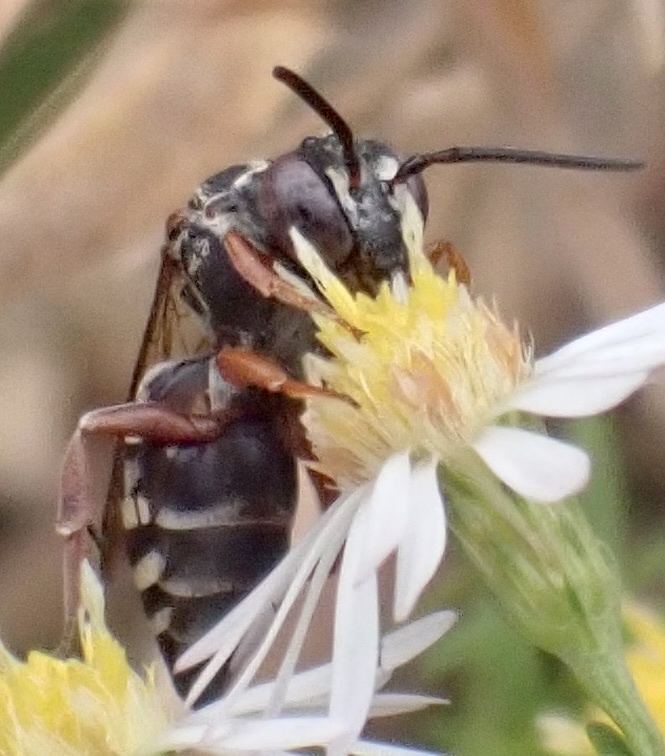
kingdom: Animalia
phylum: Arthropoda
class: Insecta
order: Hymenoptera
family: Apidae
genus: Epeolus
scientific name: Epeolus pusillus
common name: Dwarf cellophane-cuckoo bee
